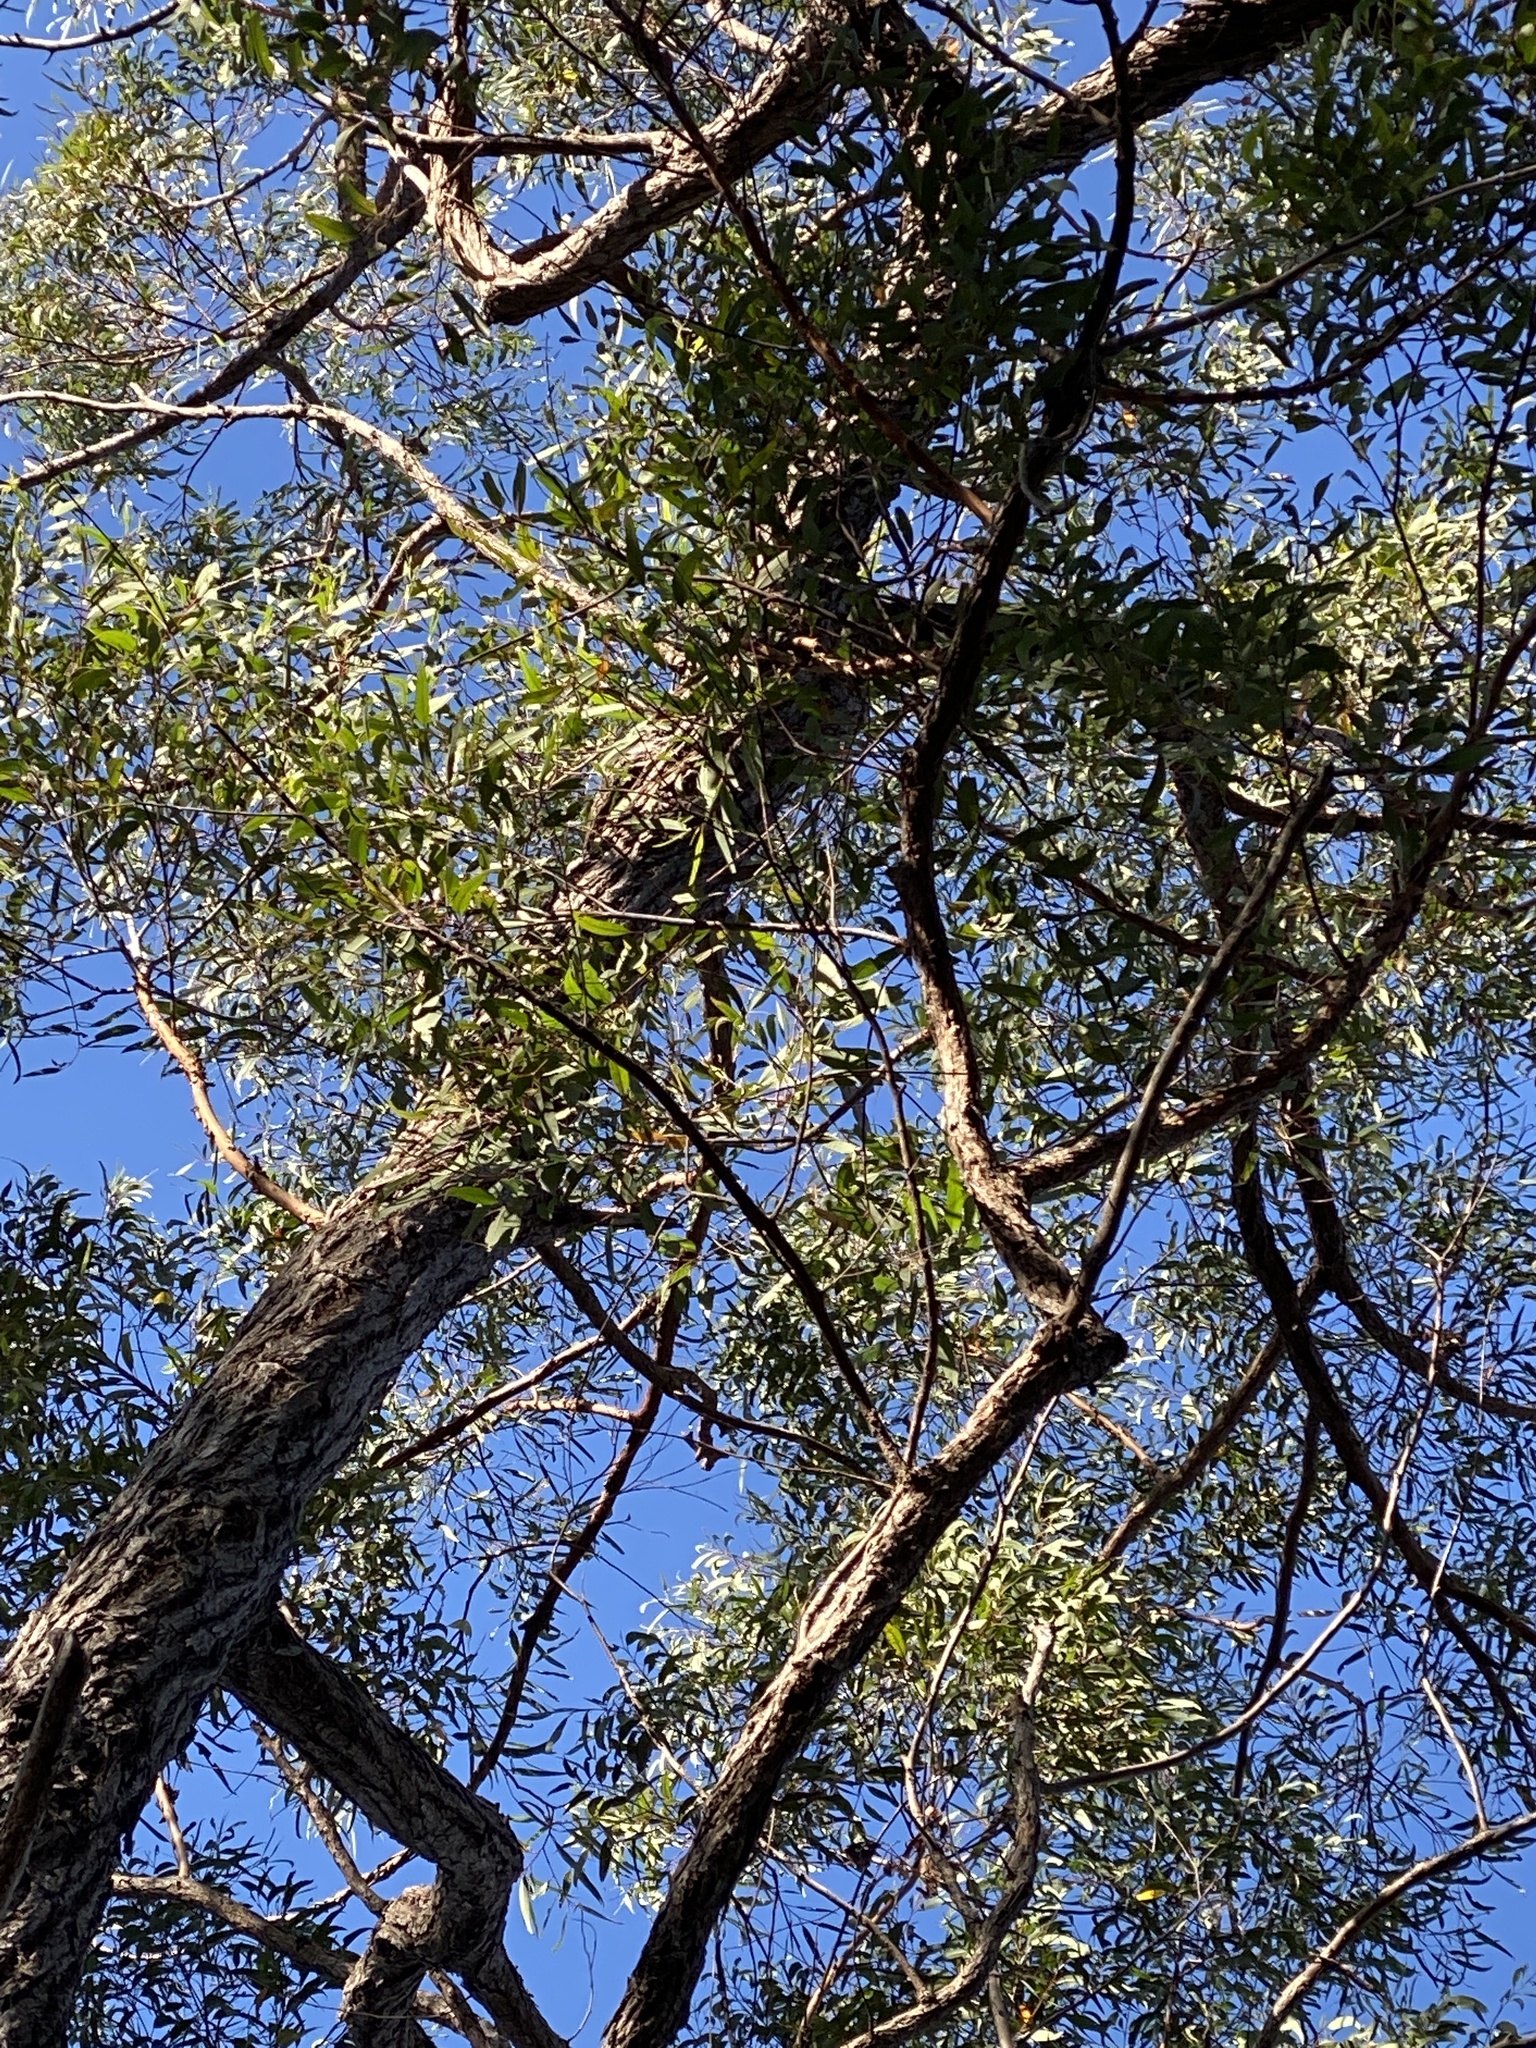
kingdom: Plantae
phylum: Tracheophyta
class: Magnoliopsida
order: Myrtales
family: Myrtaceae
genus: Eucalyptus
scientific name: Eucalyptus baileyana
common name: Bailey's-stringybark
